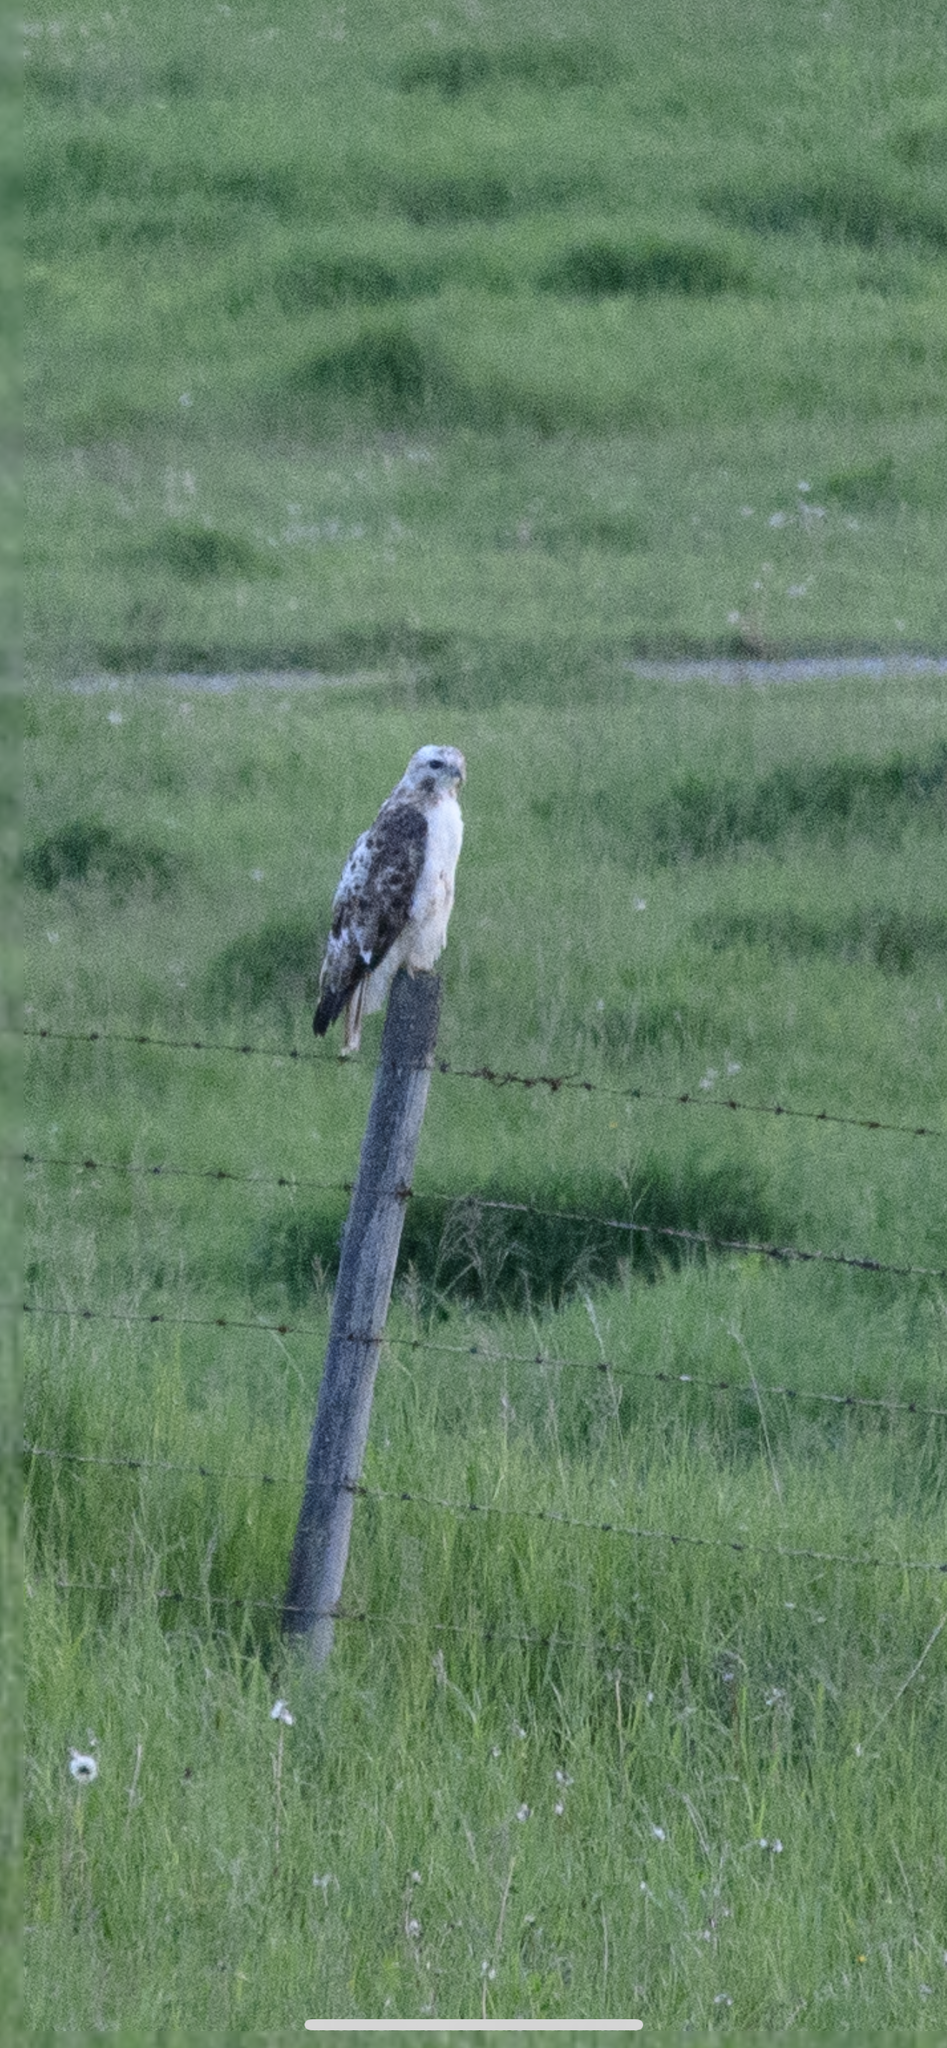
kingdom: Animalia
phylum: Chordata
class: Aves
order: Accipitriformes
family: Accipitridae
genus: Buteo
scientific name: Buteo jamaicensis
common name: Red-tailed hawk
